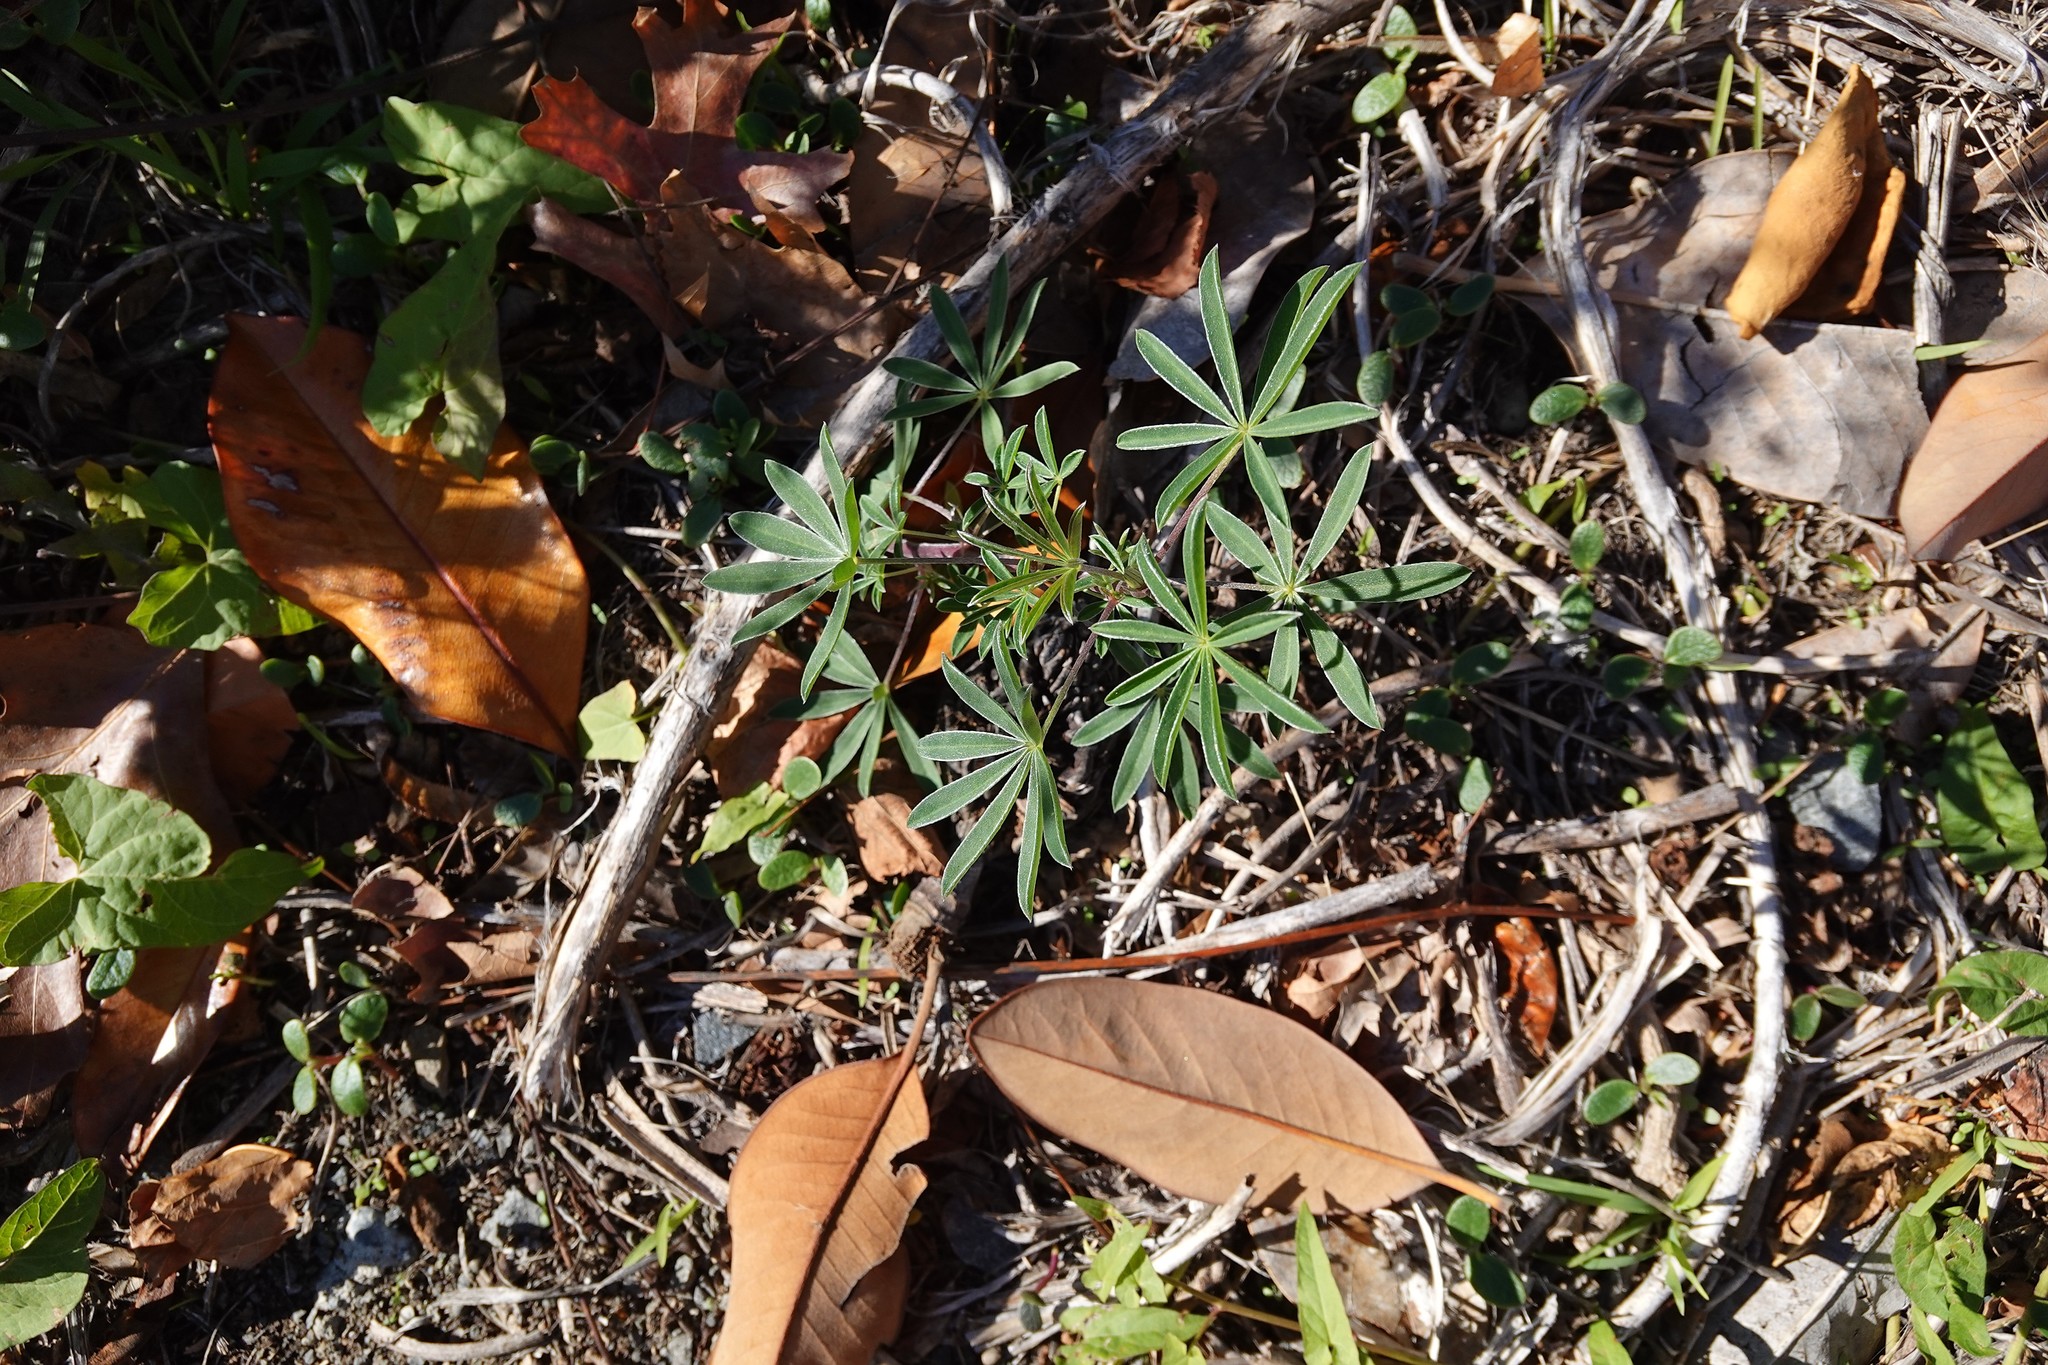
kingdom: Plantae
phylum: Tracheophyta
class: Magnoliopsida
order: Fabales
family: Fabaceae
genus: Lupinus
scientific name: Lupinus arboreus
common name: Yellow bush lupine
